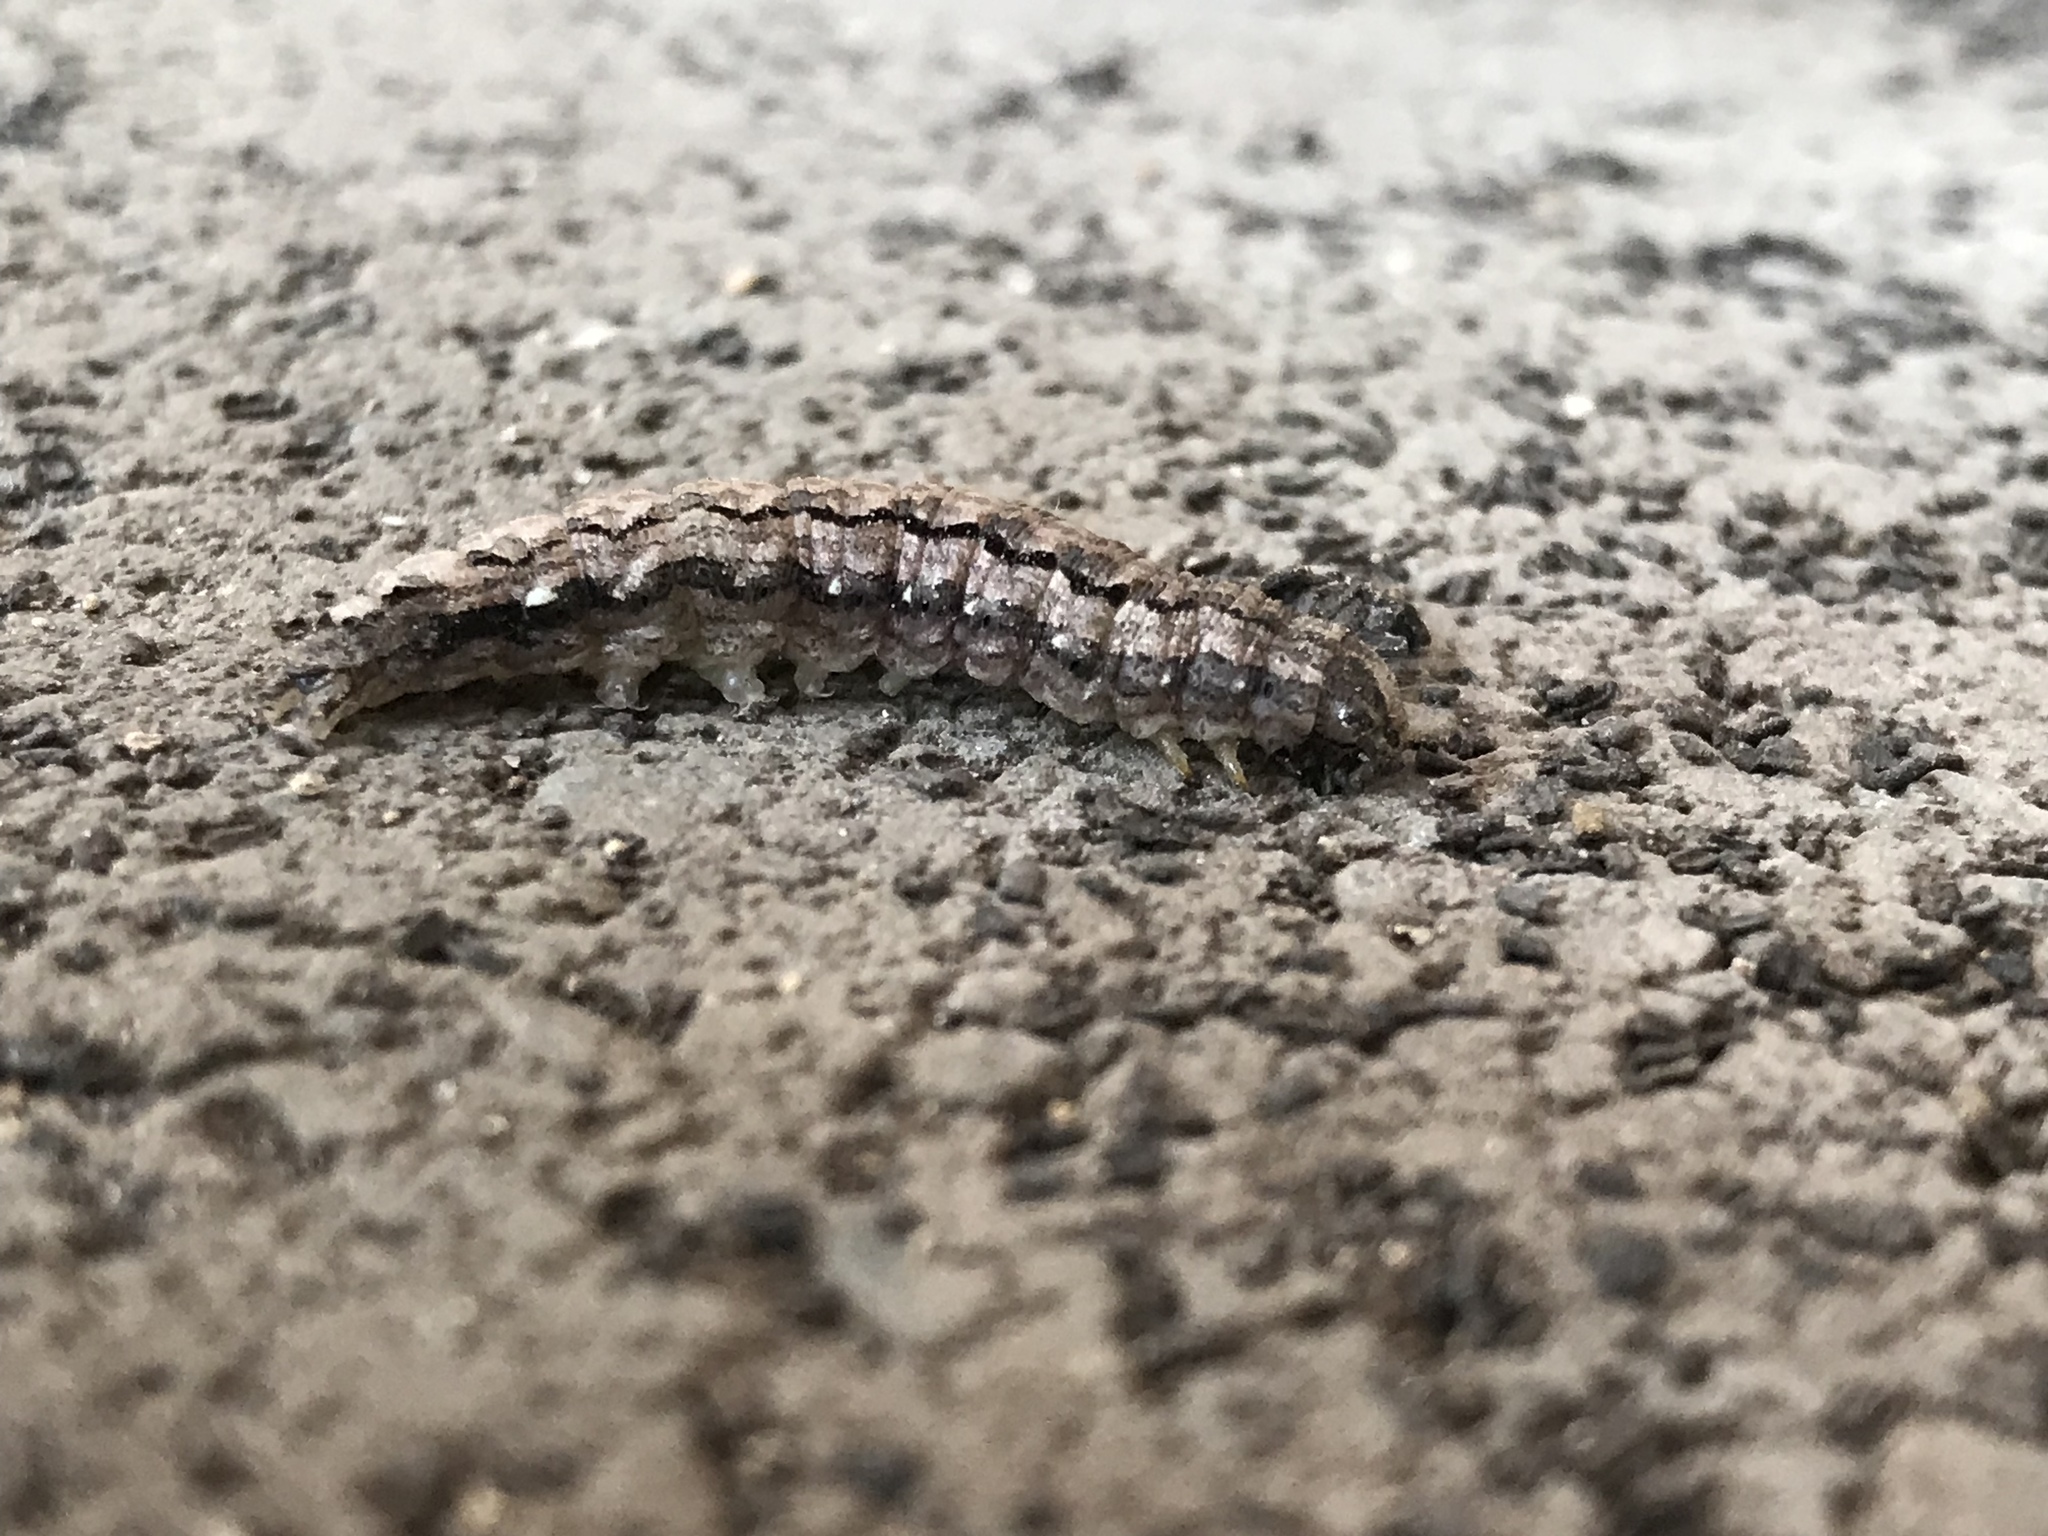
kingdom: Animalia
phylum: Arthropoda
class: Insecta
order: Lepidoptera
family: Erebidae
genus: Phoberia
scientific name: Phoberia atomaris
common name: Common oak moth
